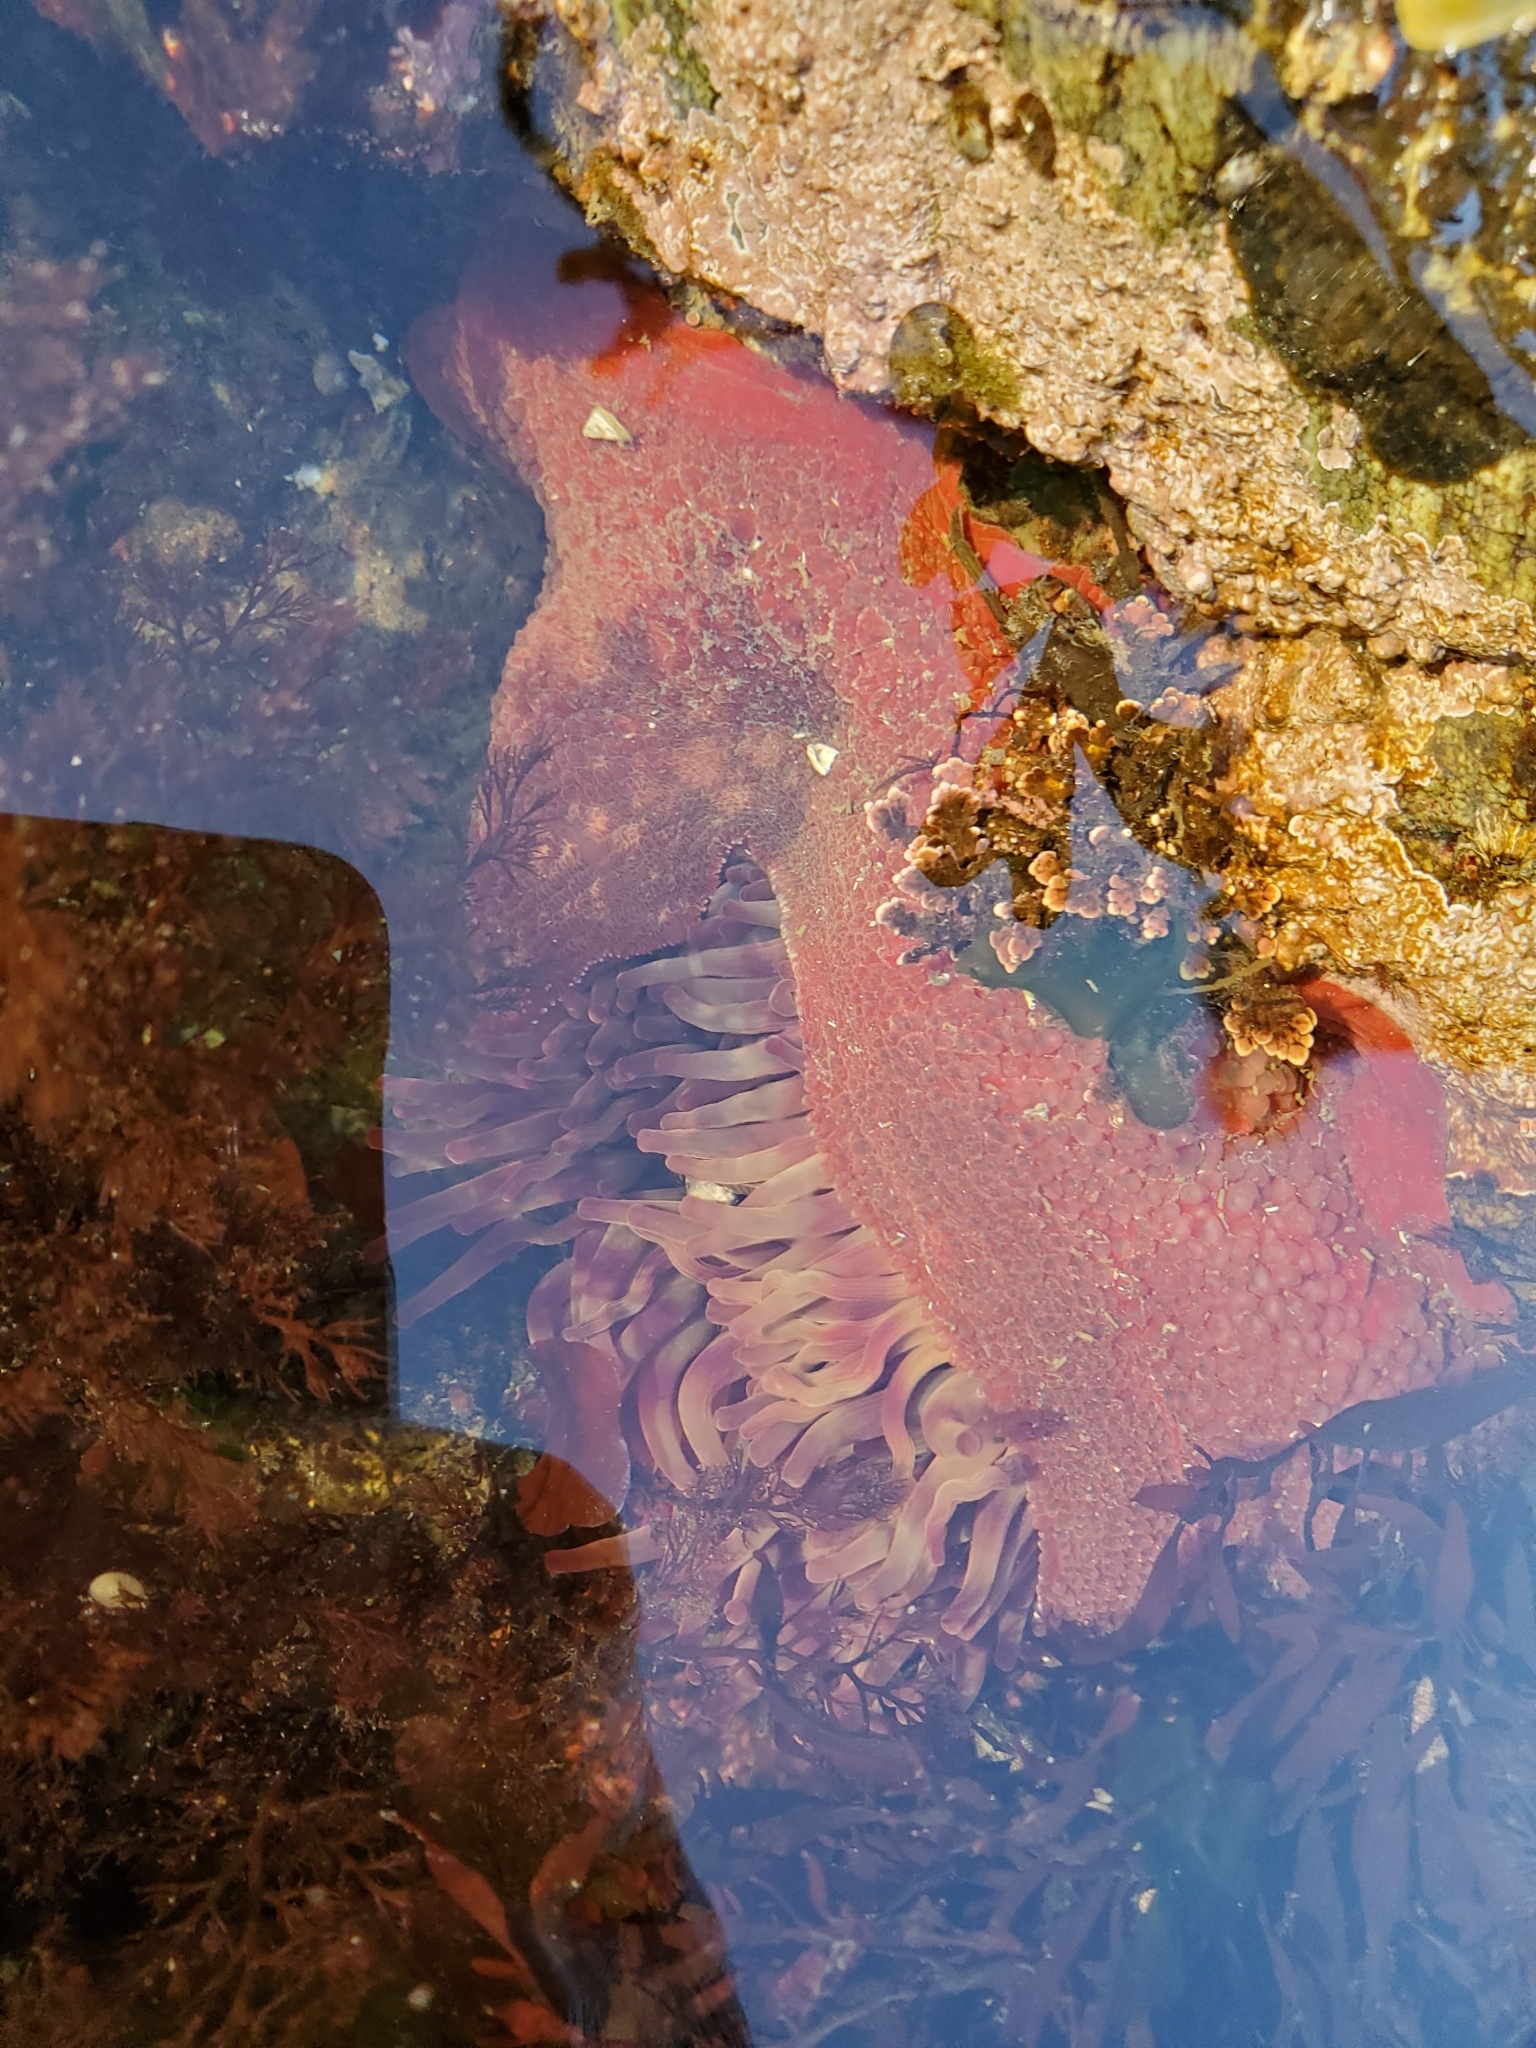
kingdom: Animalia
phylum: Cnidaria
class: Anthozoa
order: Actiniaria
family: Actiniidae
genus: Urticina
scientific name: Urticina grebelnyi
